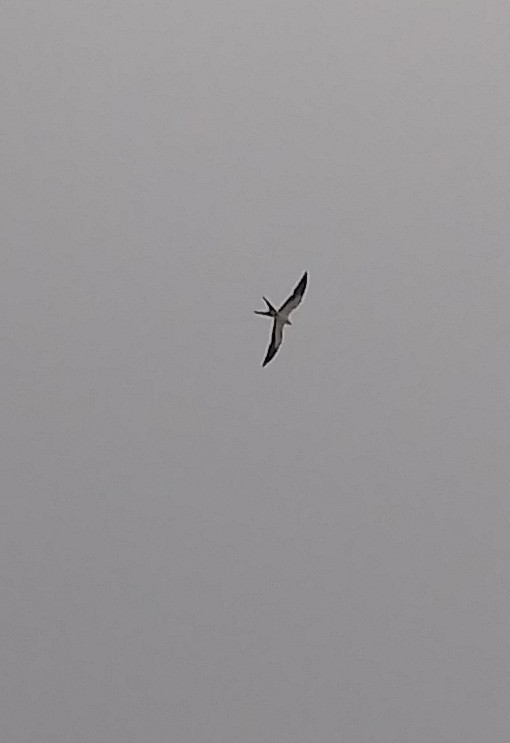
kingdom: Animalia
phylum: Chordata
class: Aves
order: Accipitriformes
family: Accipitridae
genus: Elanoides
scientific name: Elanoides forficatus
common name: Swallow-tailed kite
